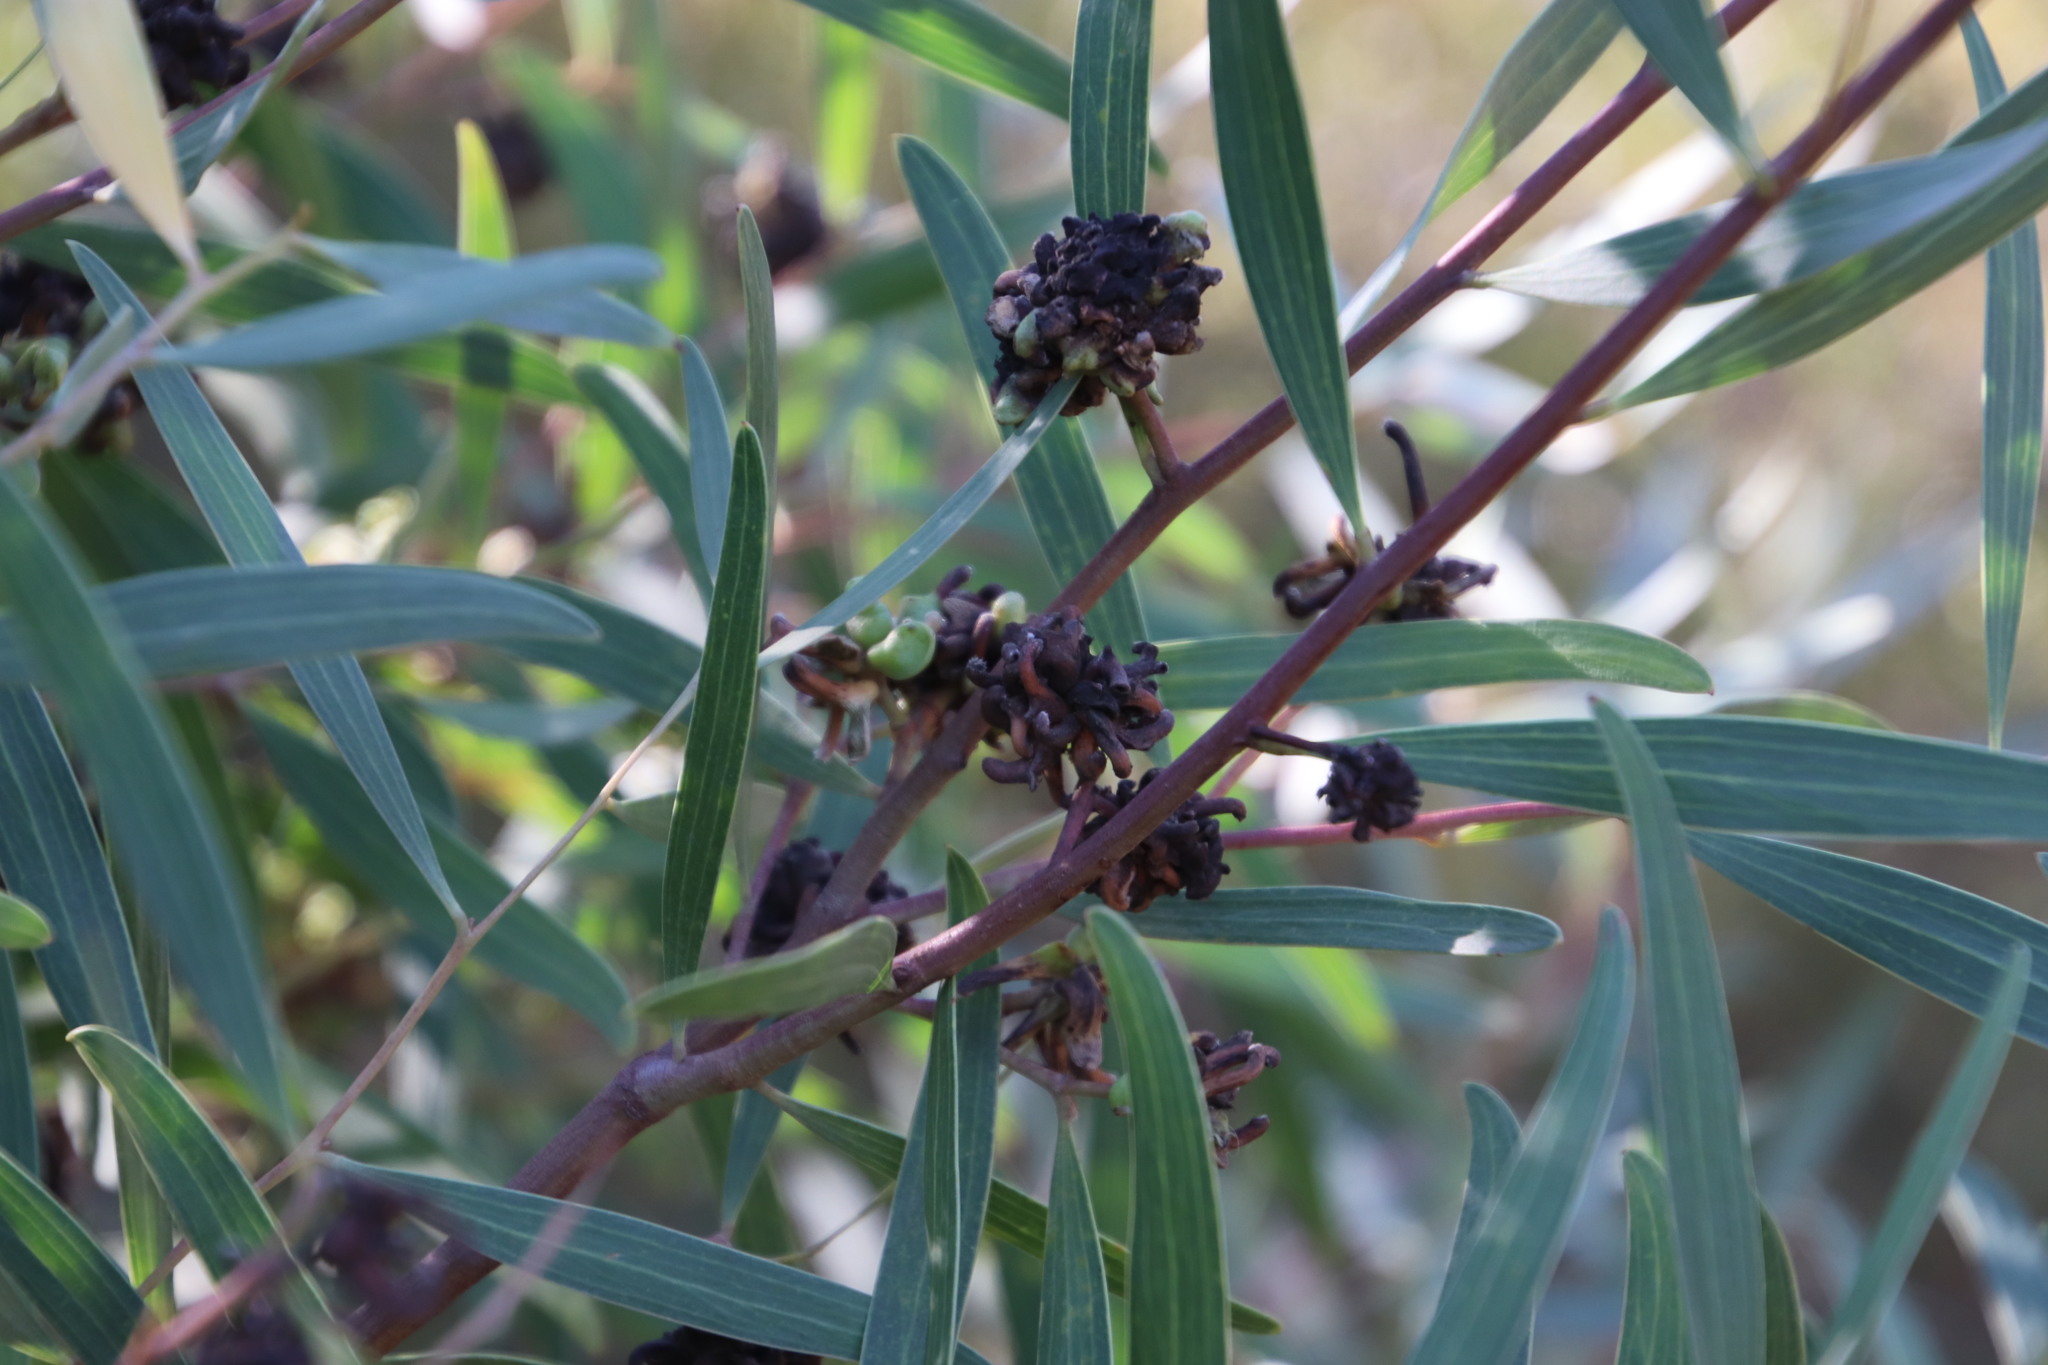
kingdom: Animalia
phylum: Arthropoda
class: Insecta
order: Diptera
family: Cecidomyiidae
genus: Dasineura
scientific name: Dasineura dielsi
